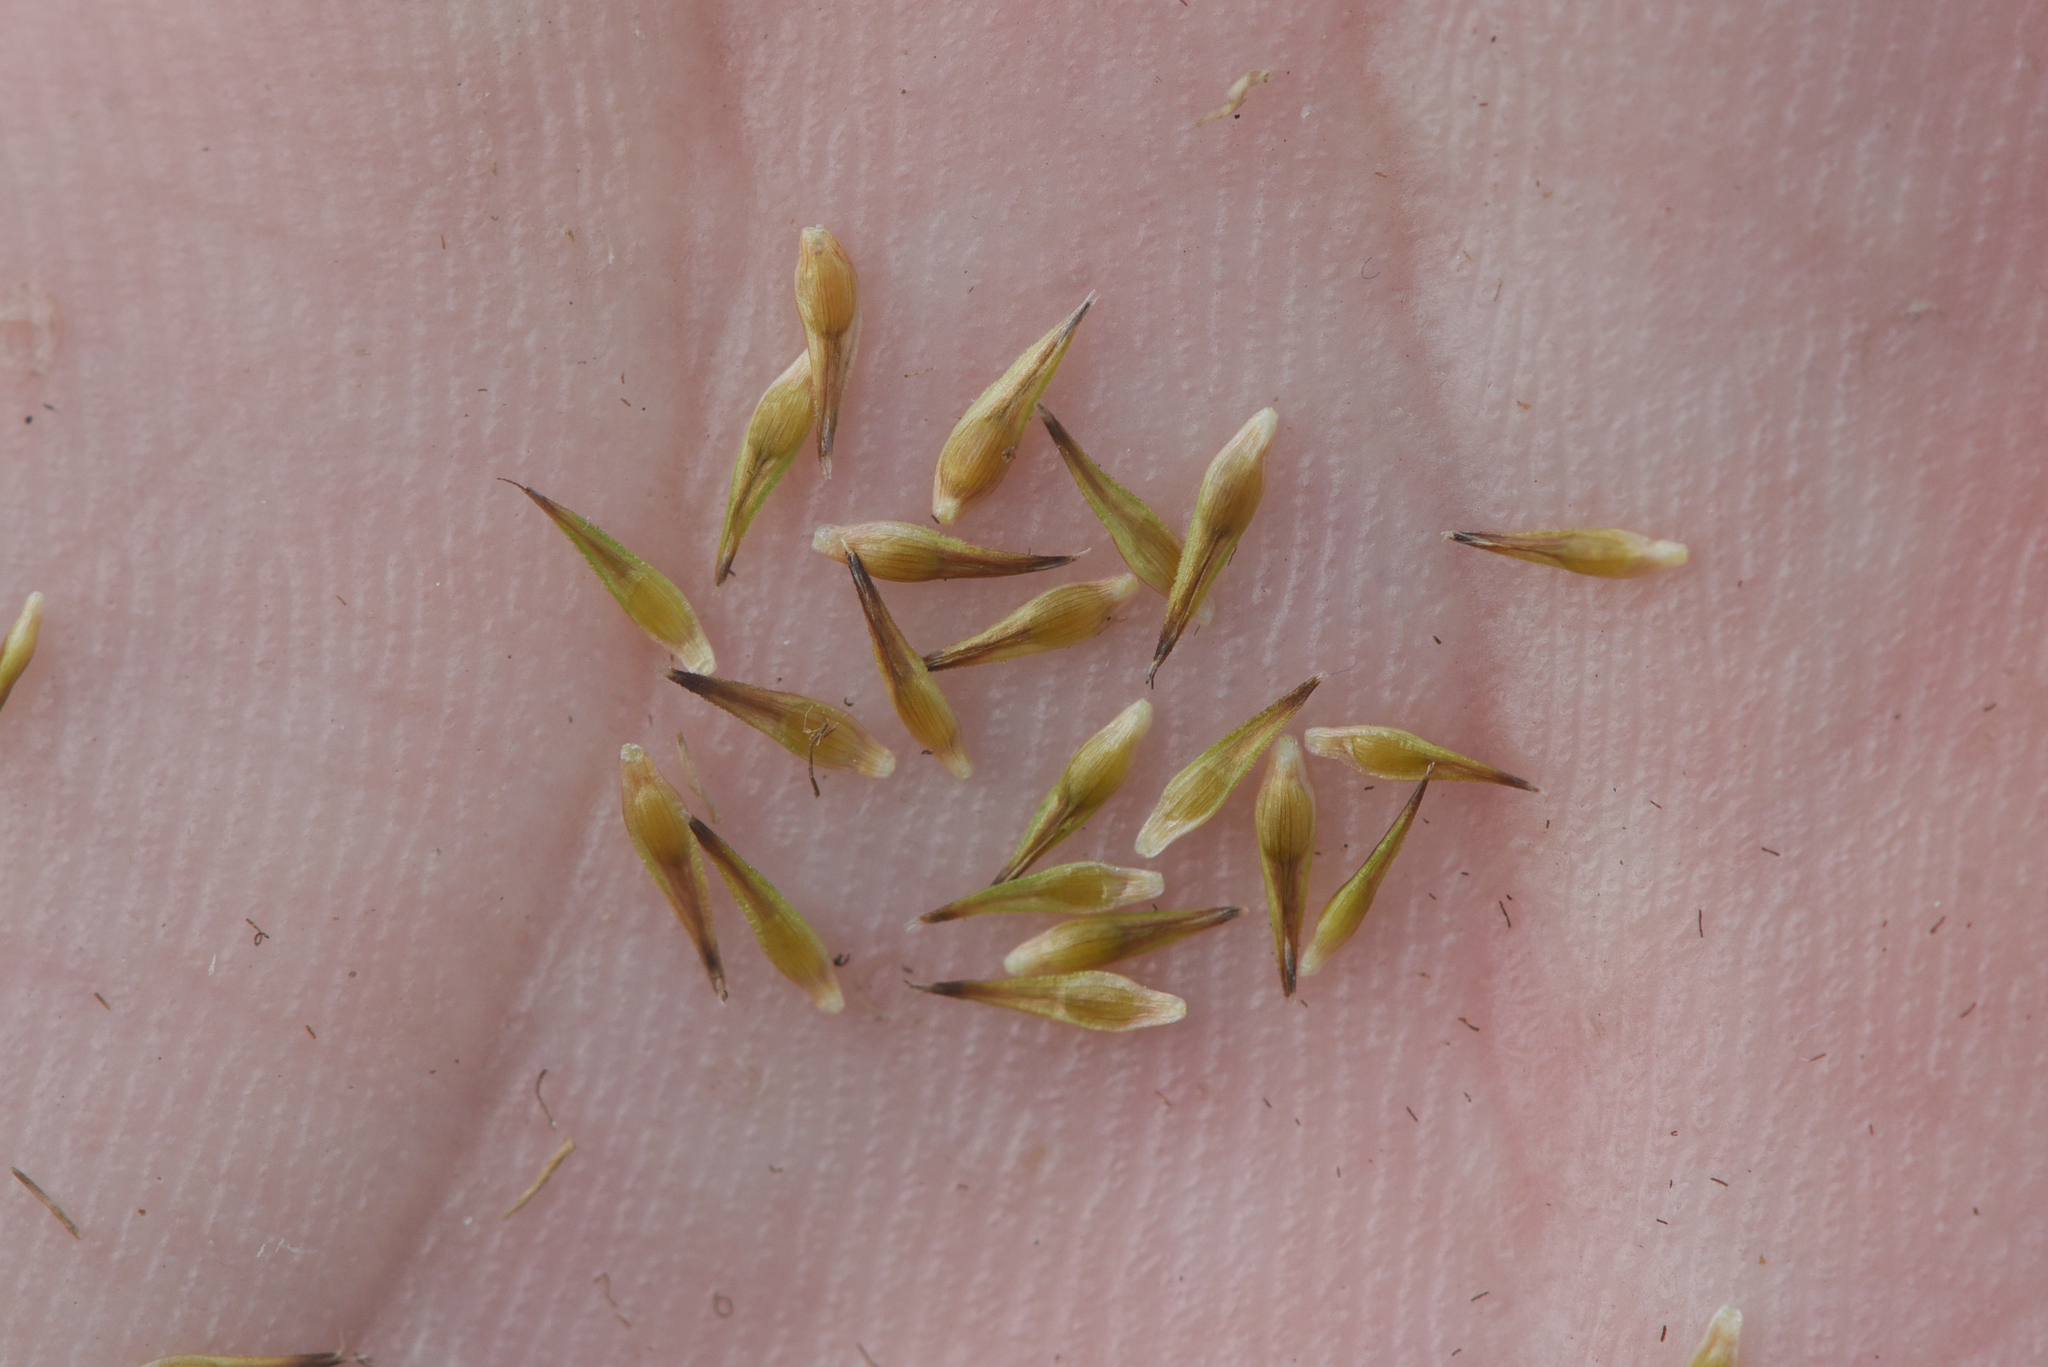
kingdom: Plantae
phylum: Tracheophyta
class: Liliopsida
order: Poales
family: Cyperaceae
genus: Carex
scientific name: Carex sychnocephala
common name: Dense long-beaked sedge
